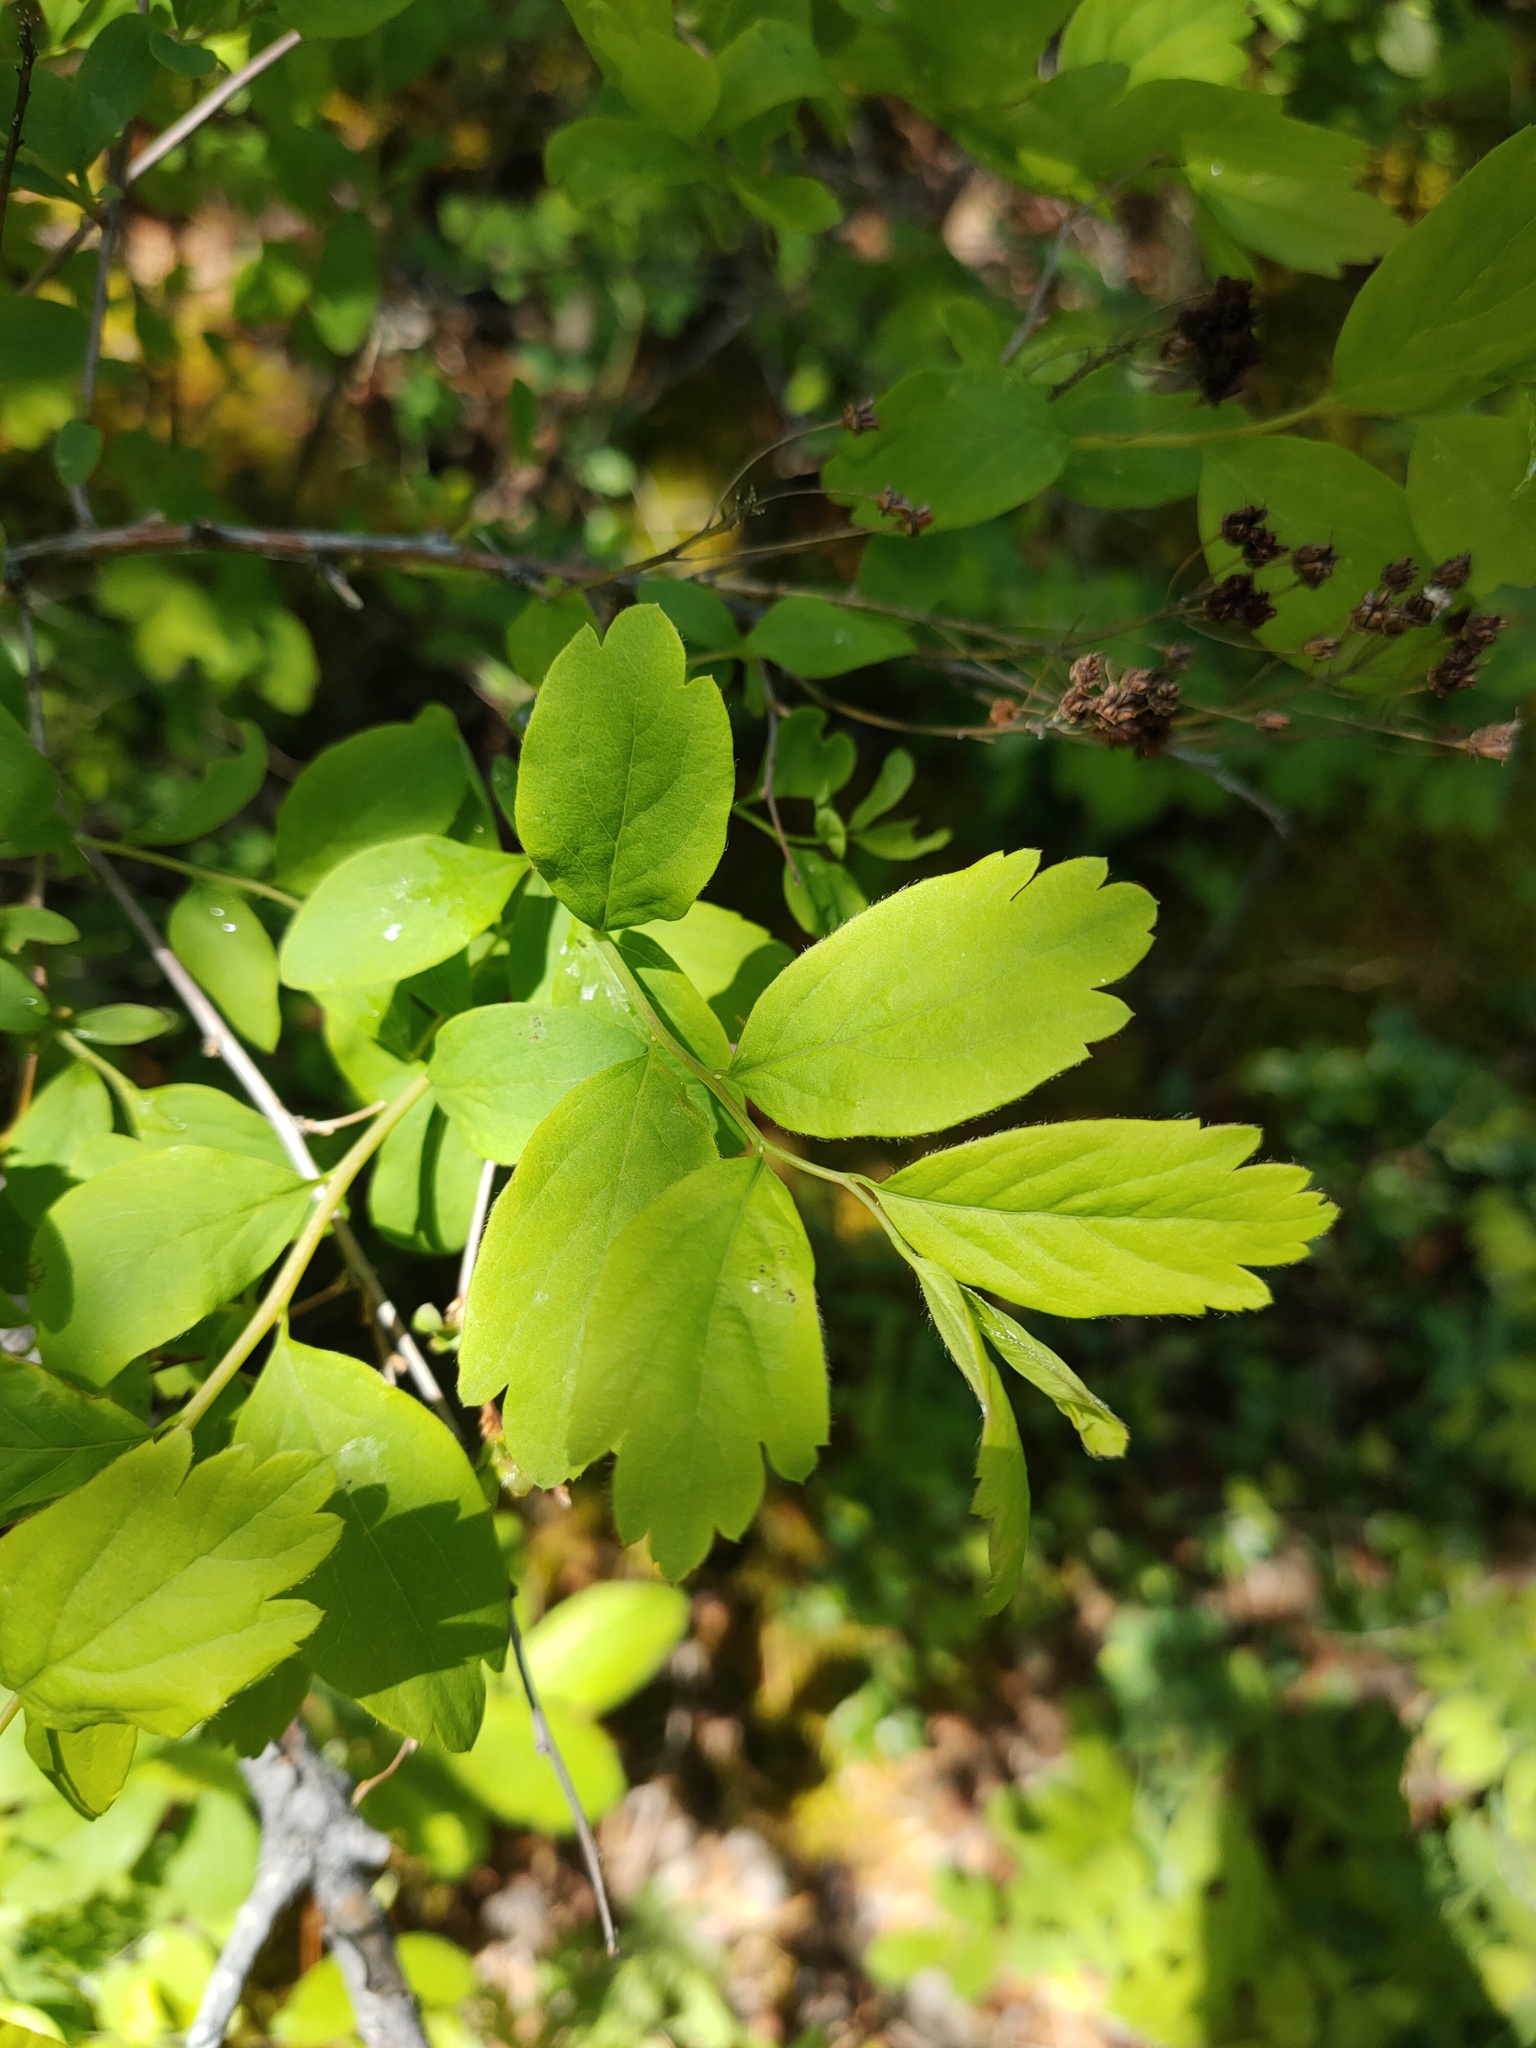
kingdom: Plantae
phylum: Tracheophyta
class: Magnoliopsida
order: Rosales
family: Rosaceae
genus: Spiraea
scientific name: Spiraea media
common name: Russian spiraea
